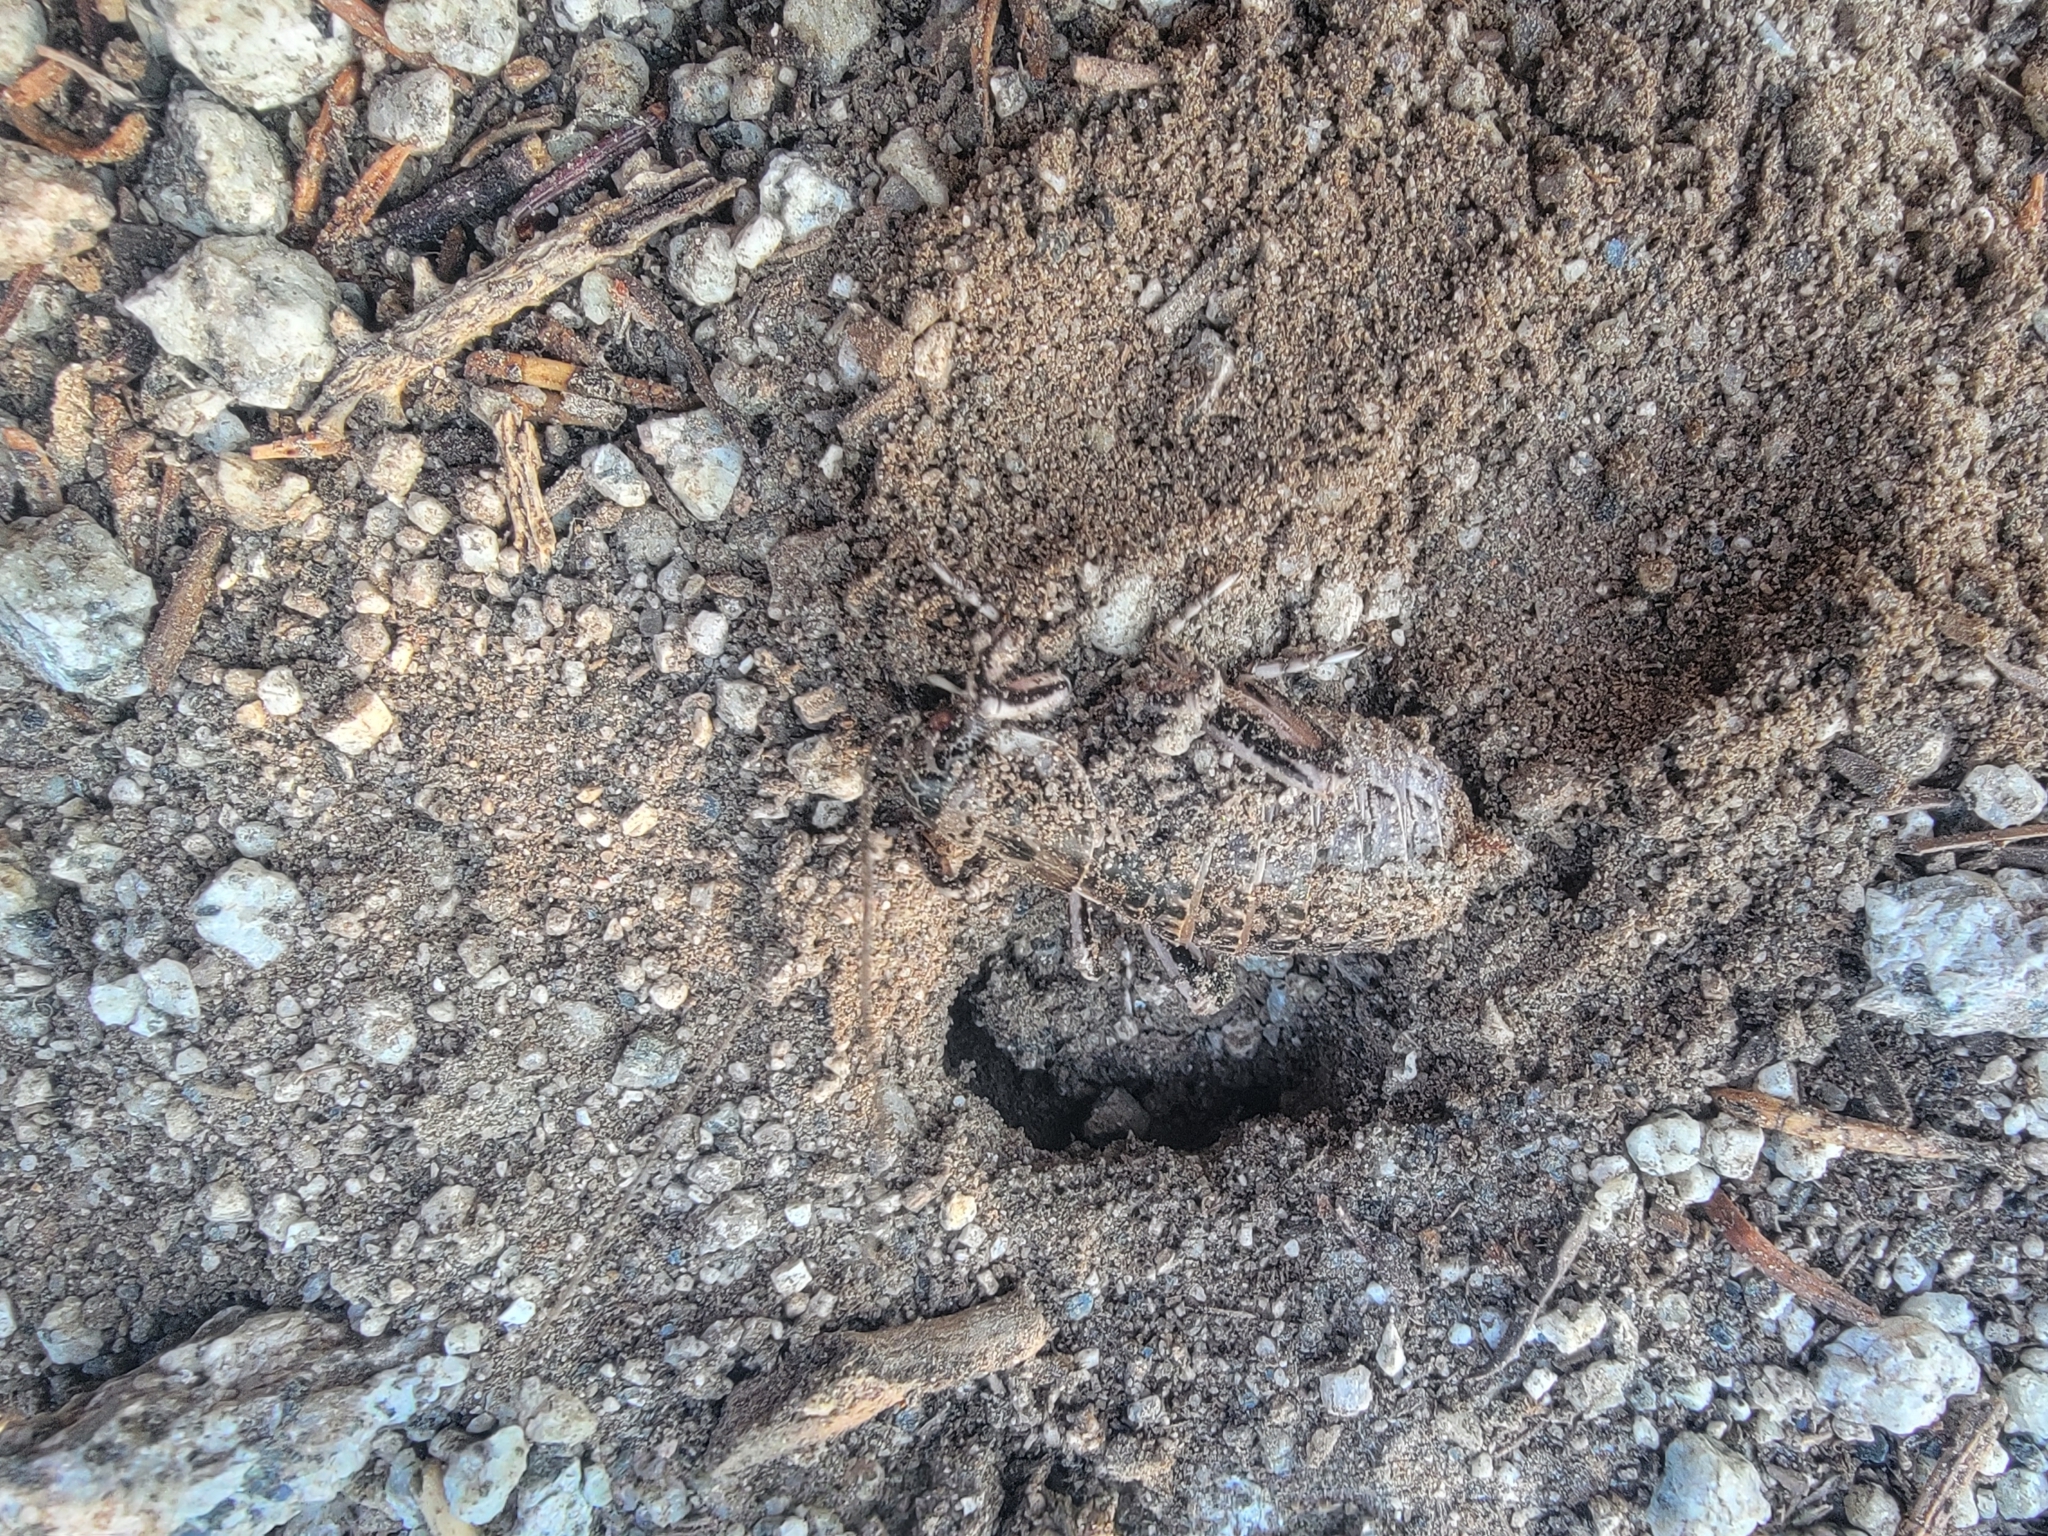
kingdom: Animalia
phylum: Arthropoda
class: Insecta
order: Orthoptera
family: Prophalangopsidae
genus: Cyphoderris
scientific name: Cyphoderris monstrosa
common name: Great grig
